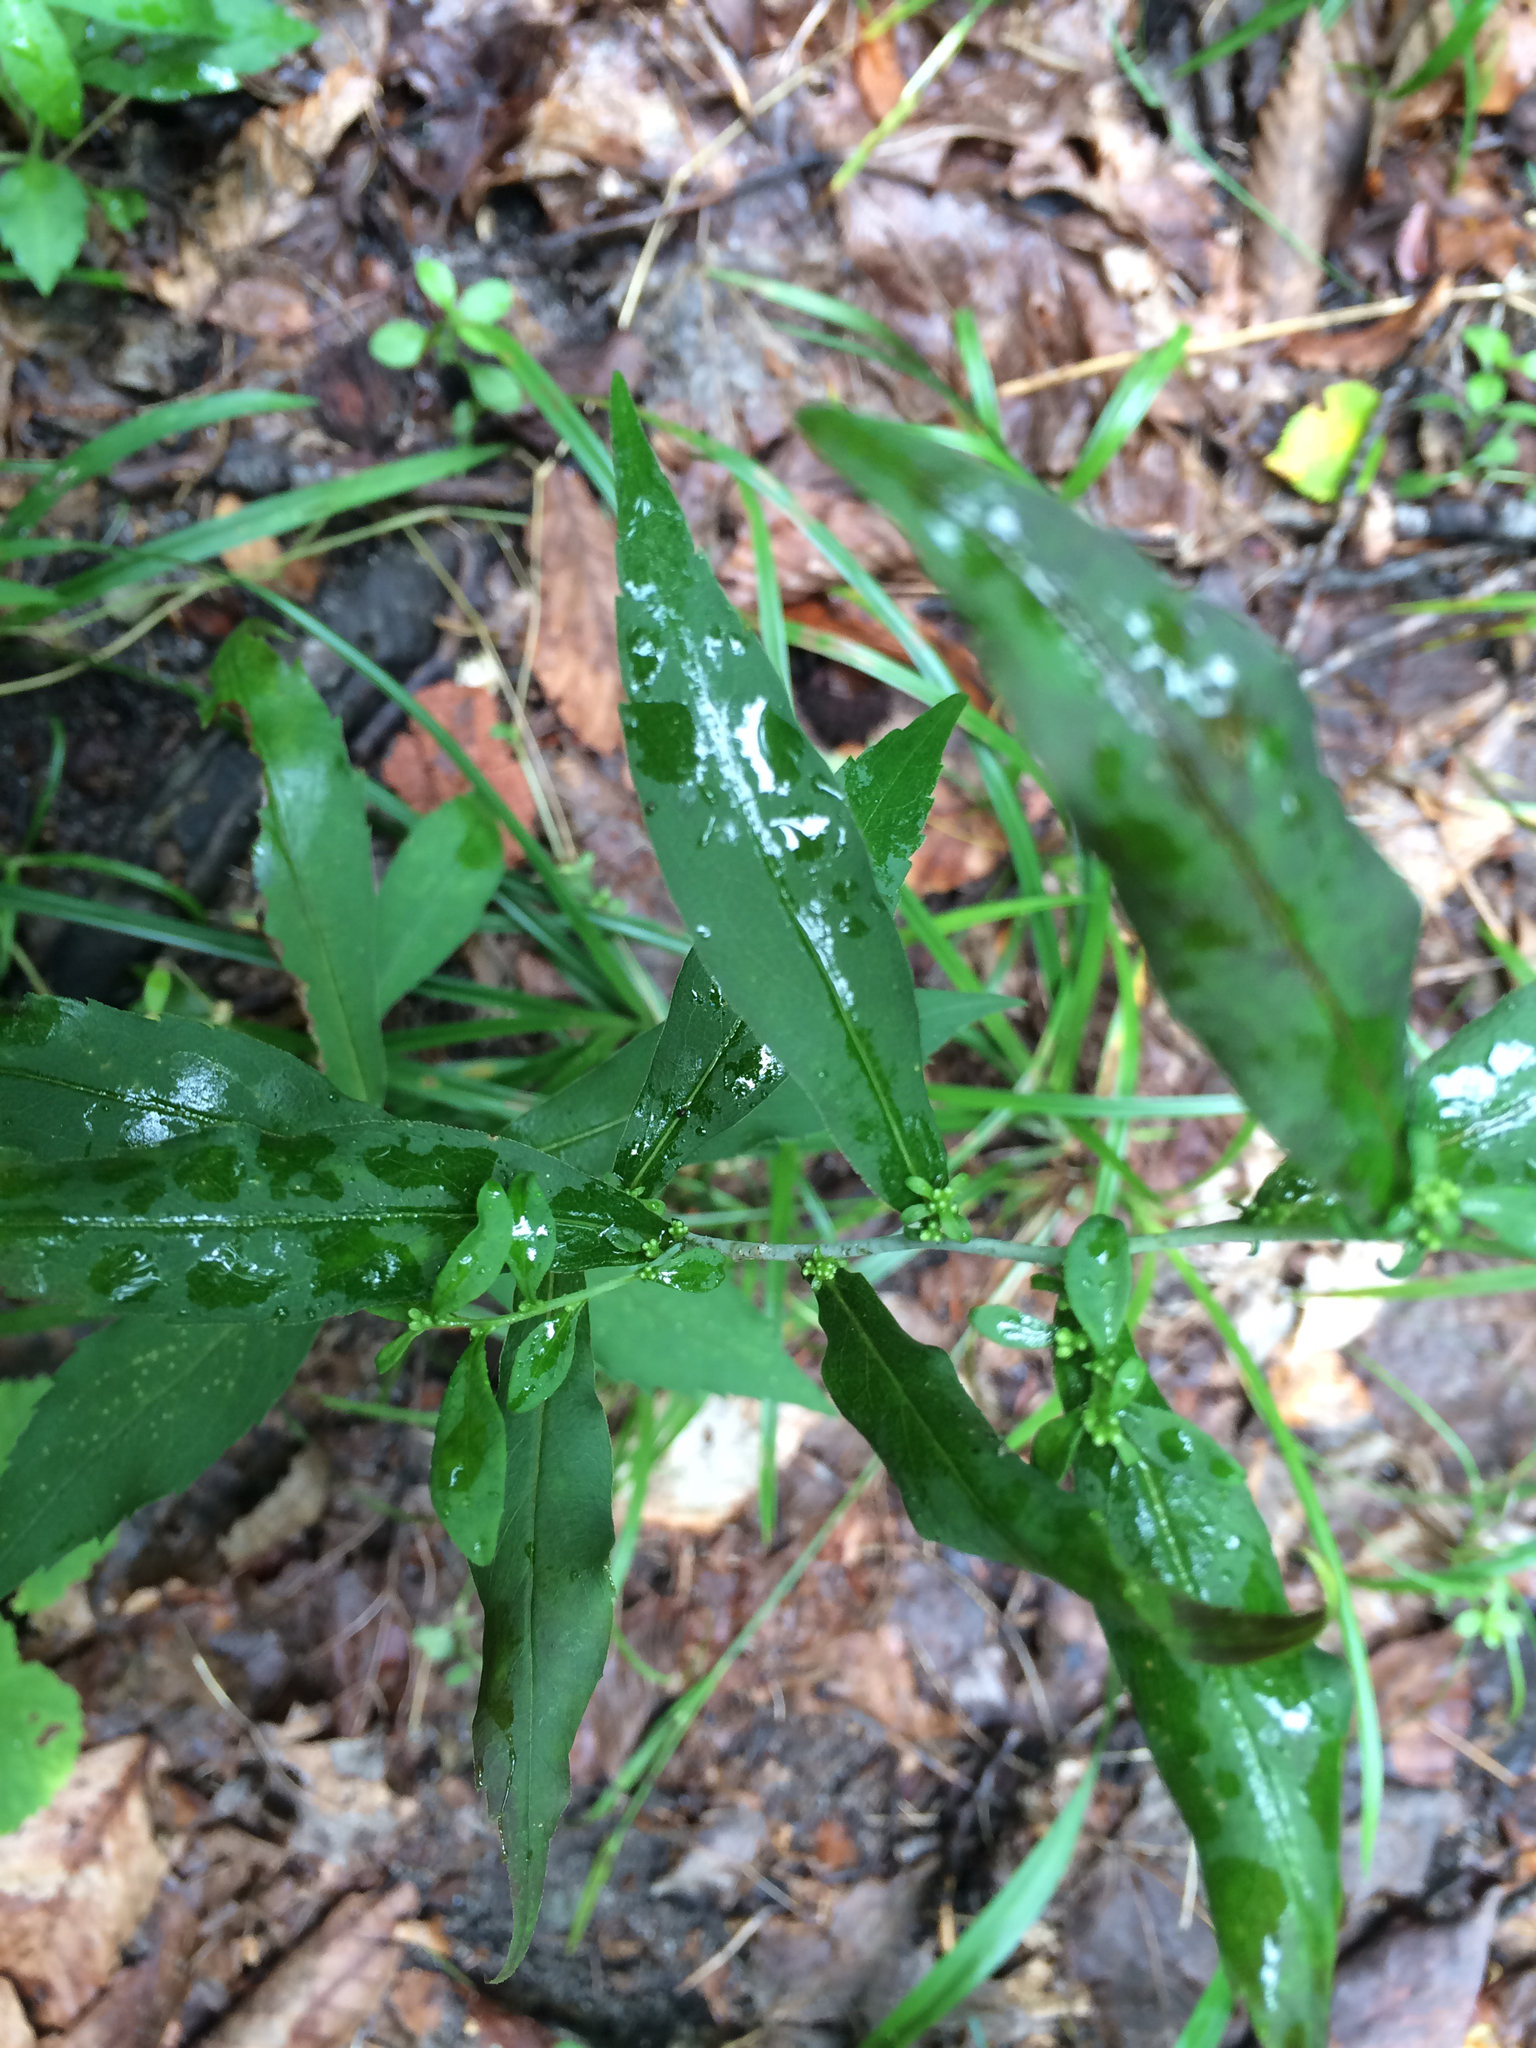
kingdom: Plantae
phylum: Tracheophyta
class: Magnoliopsida
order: Asterales
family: Asteraceae
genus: Solidago
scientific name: Solidago caesia
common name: Woodland goldenrod
